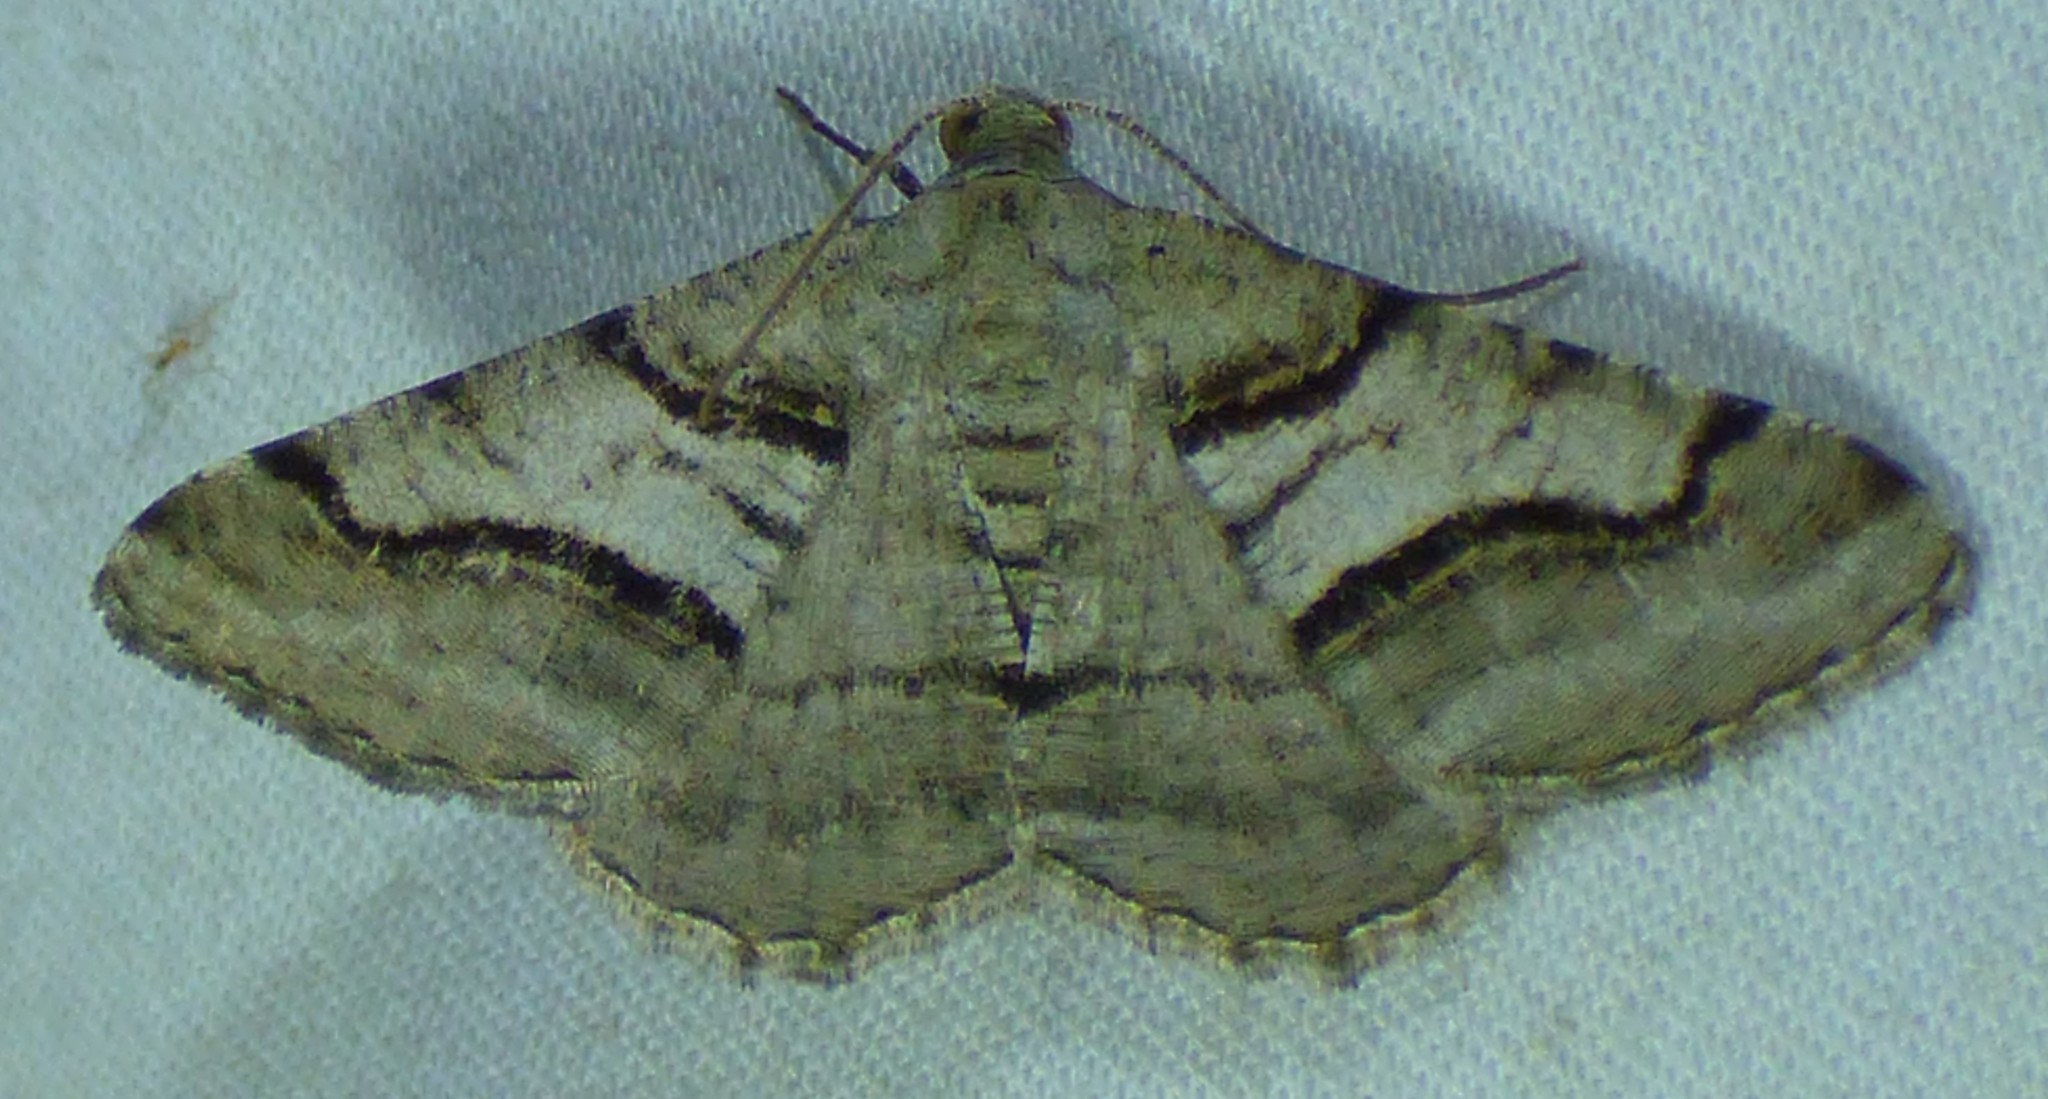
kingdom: Animalia
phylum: Arthropoda
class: Insecta
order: Lepidoptera
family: Geometridae
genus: Digrammia
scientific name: Digrammia continuata
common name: Curve-lined angle
